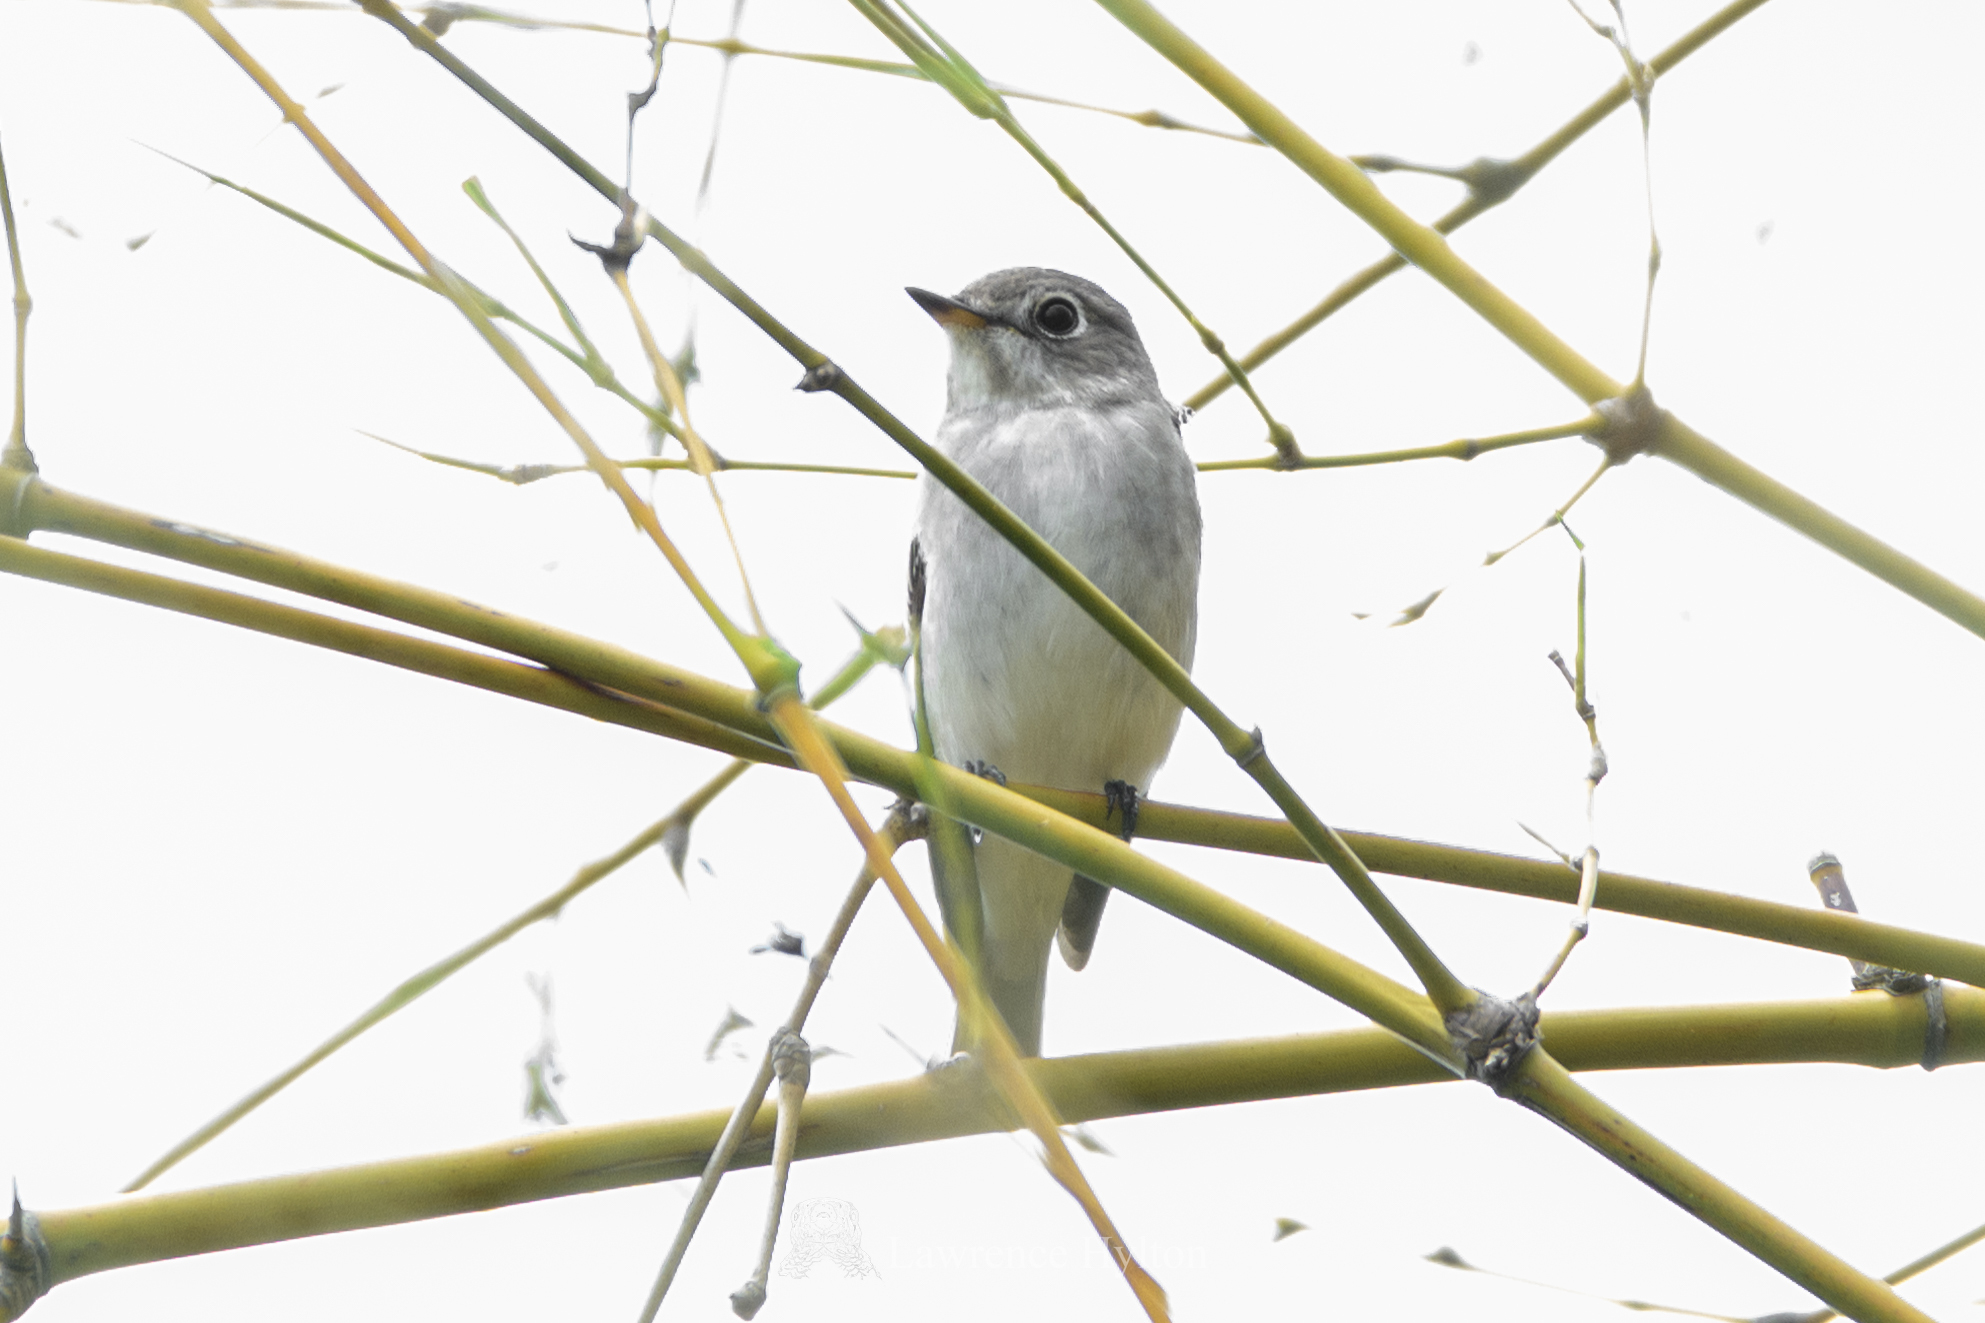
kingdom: Animalia
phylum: Chordata
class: Aves
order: Passeriformes
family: Muscicapidae
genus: Muscicapa
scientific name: Muscicapa latirostris
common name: Asian brown flycatcher
